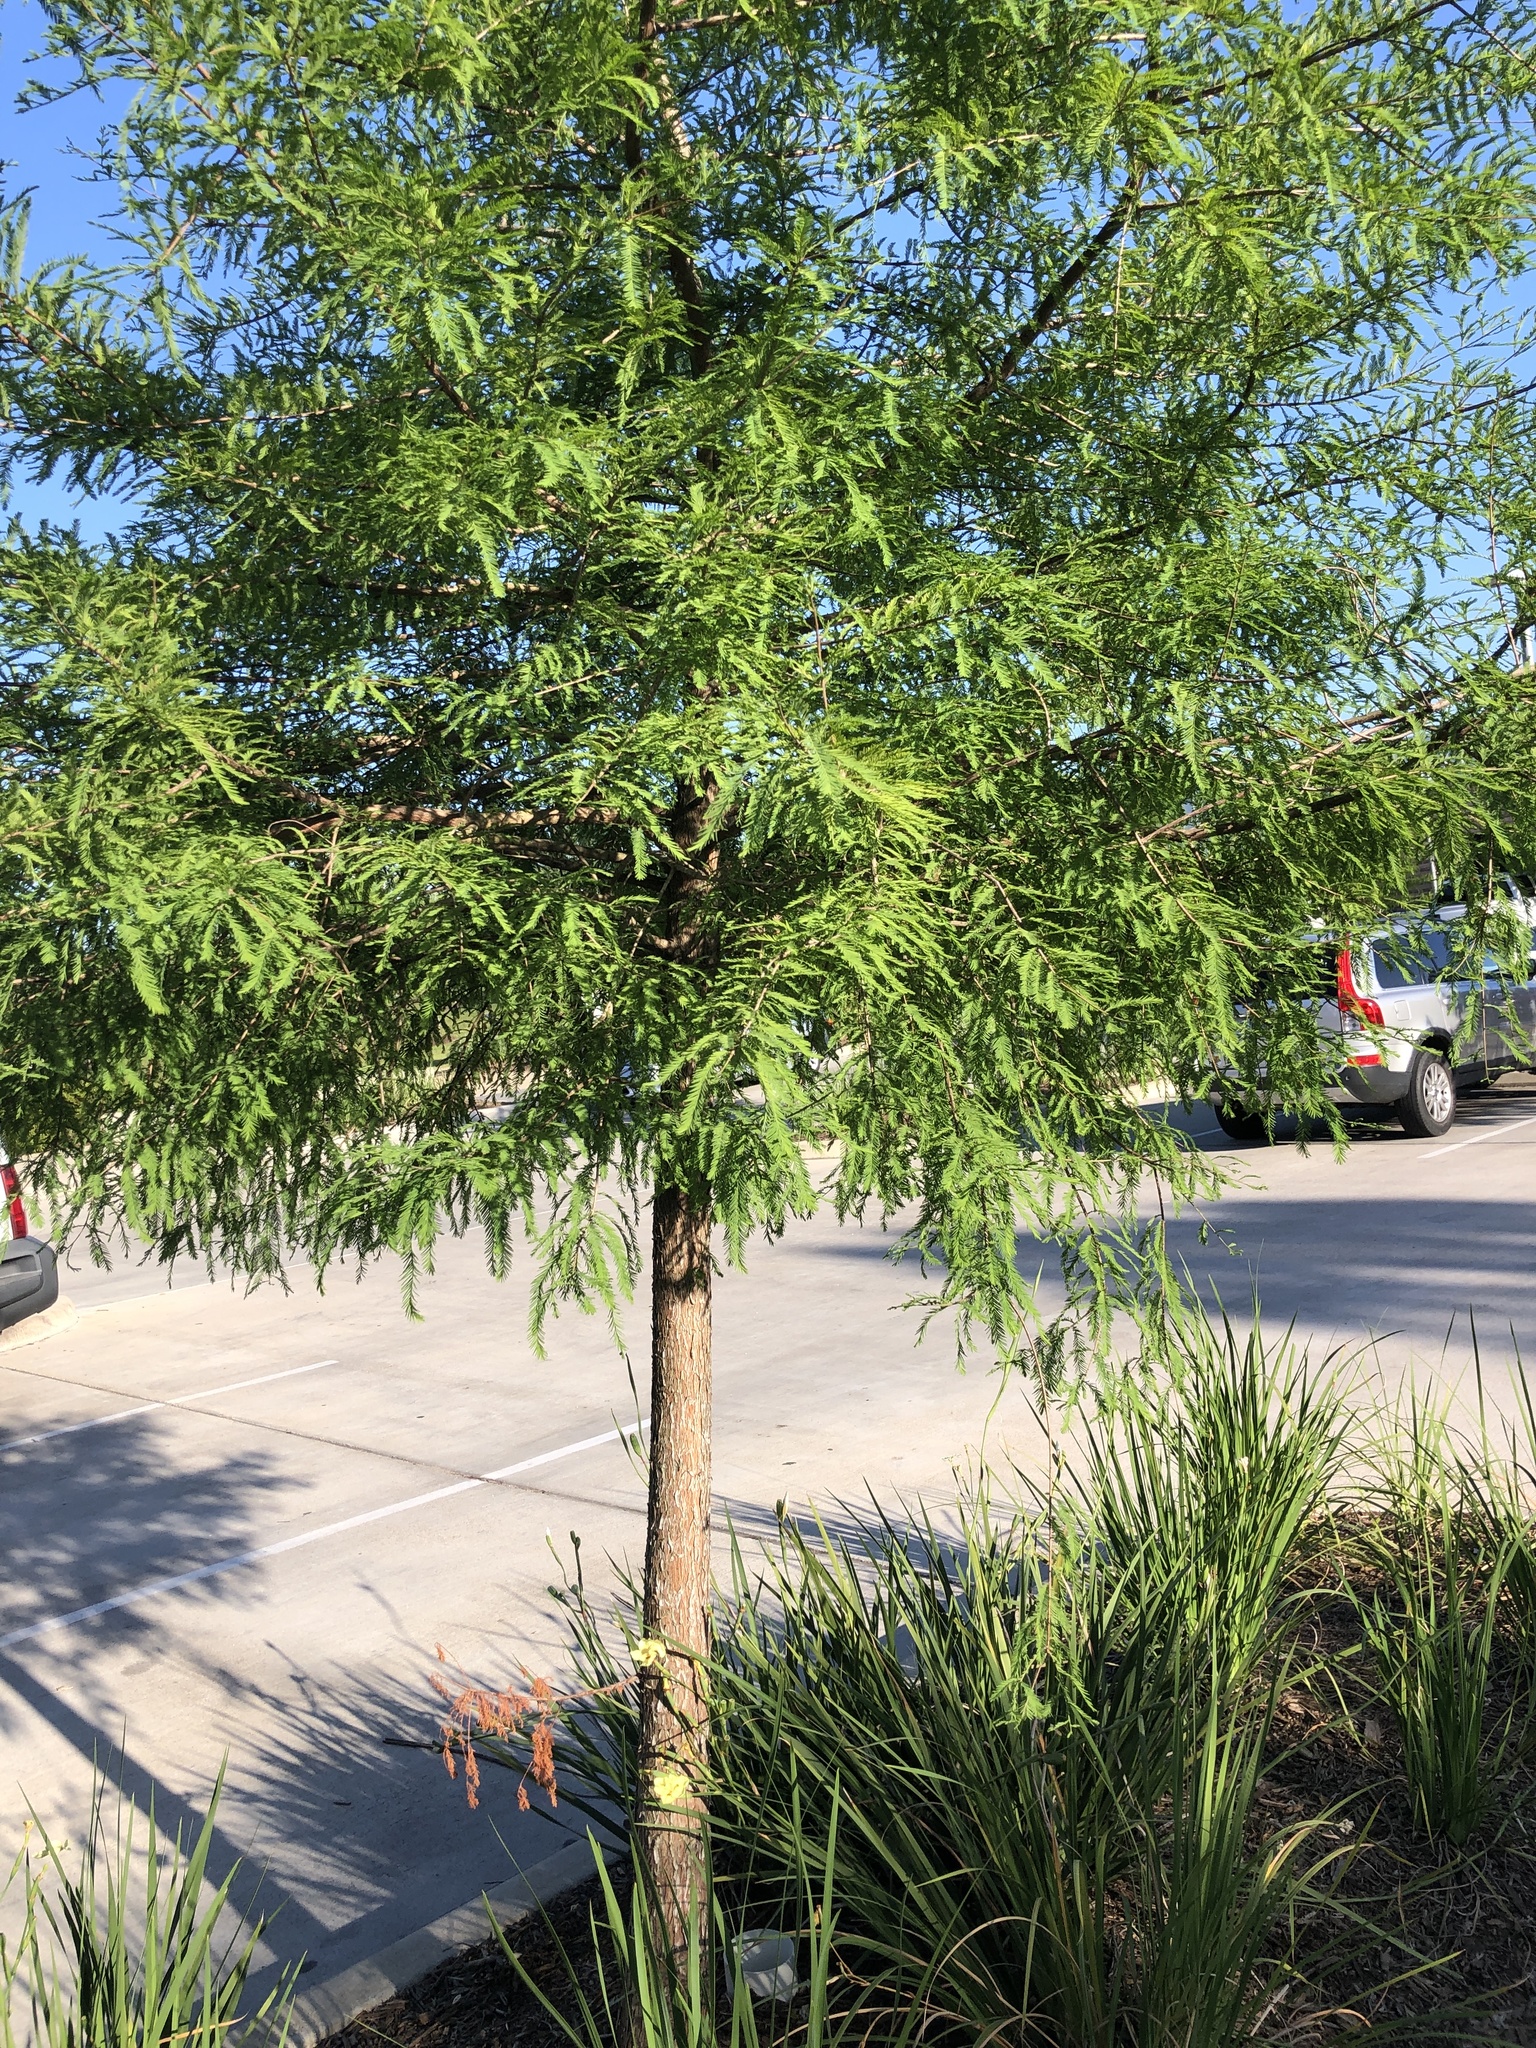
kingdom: Plantae
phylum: Tracheophyta
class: Pinopsida
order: Pinales
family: Cupressaceae
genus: Taxodium
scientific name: Taxodium distichum
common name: Bald cypress
